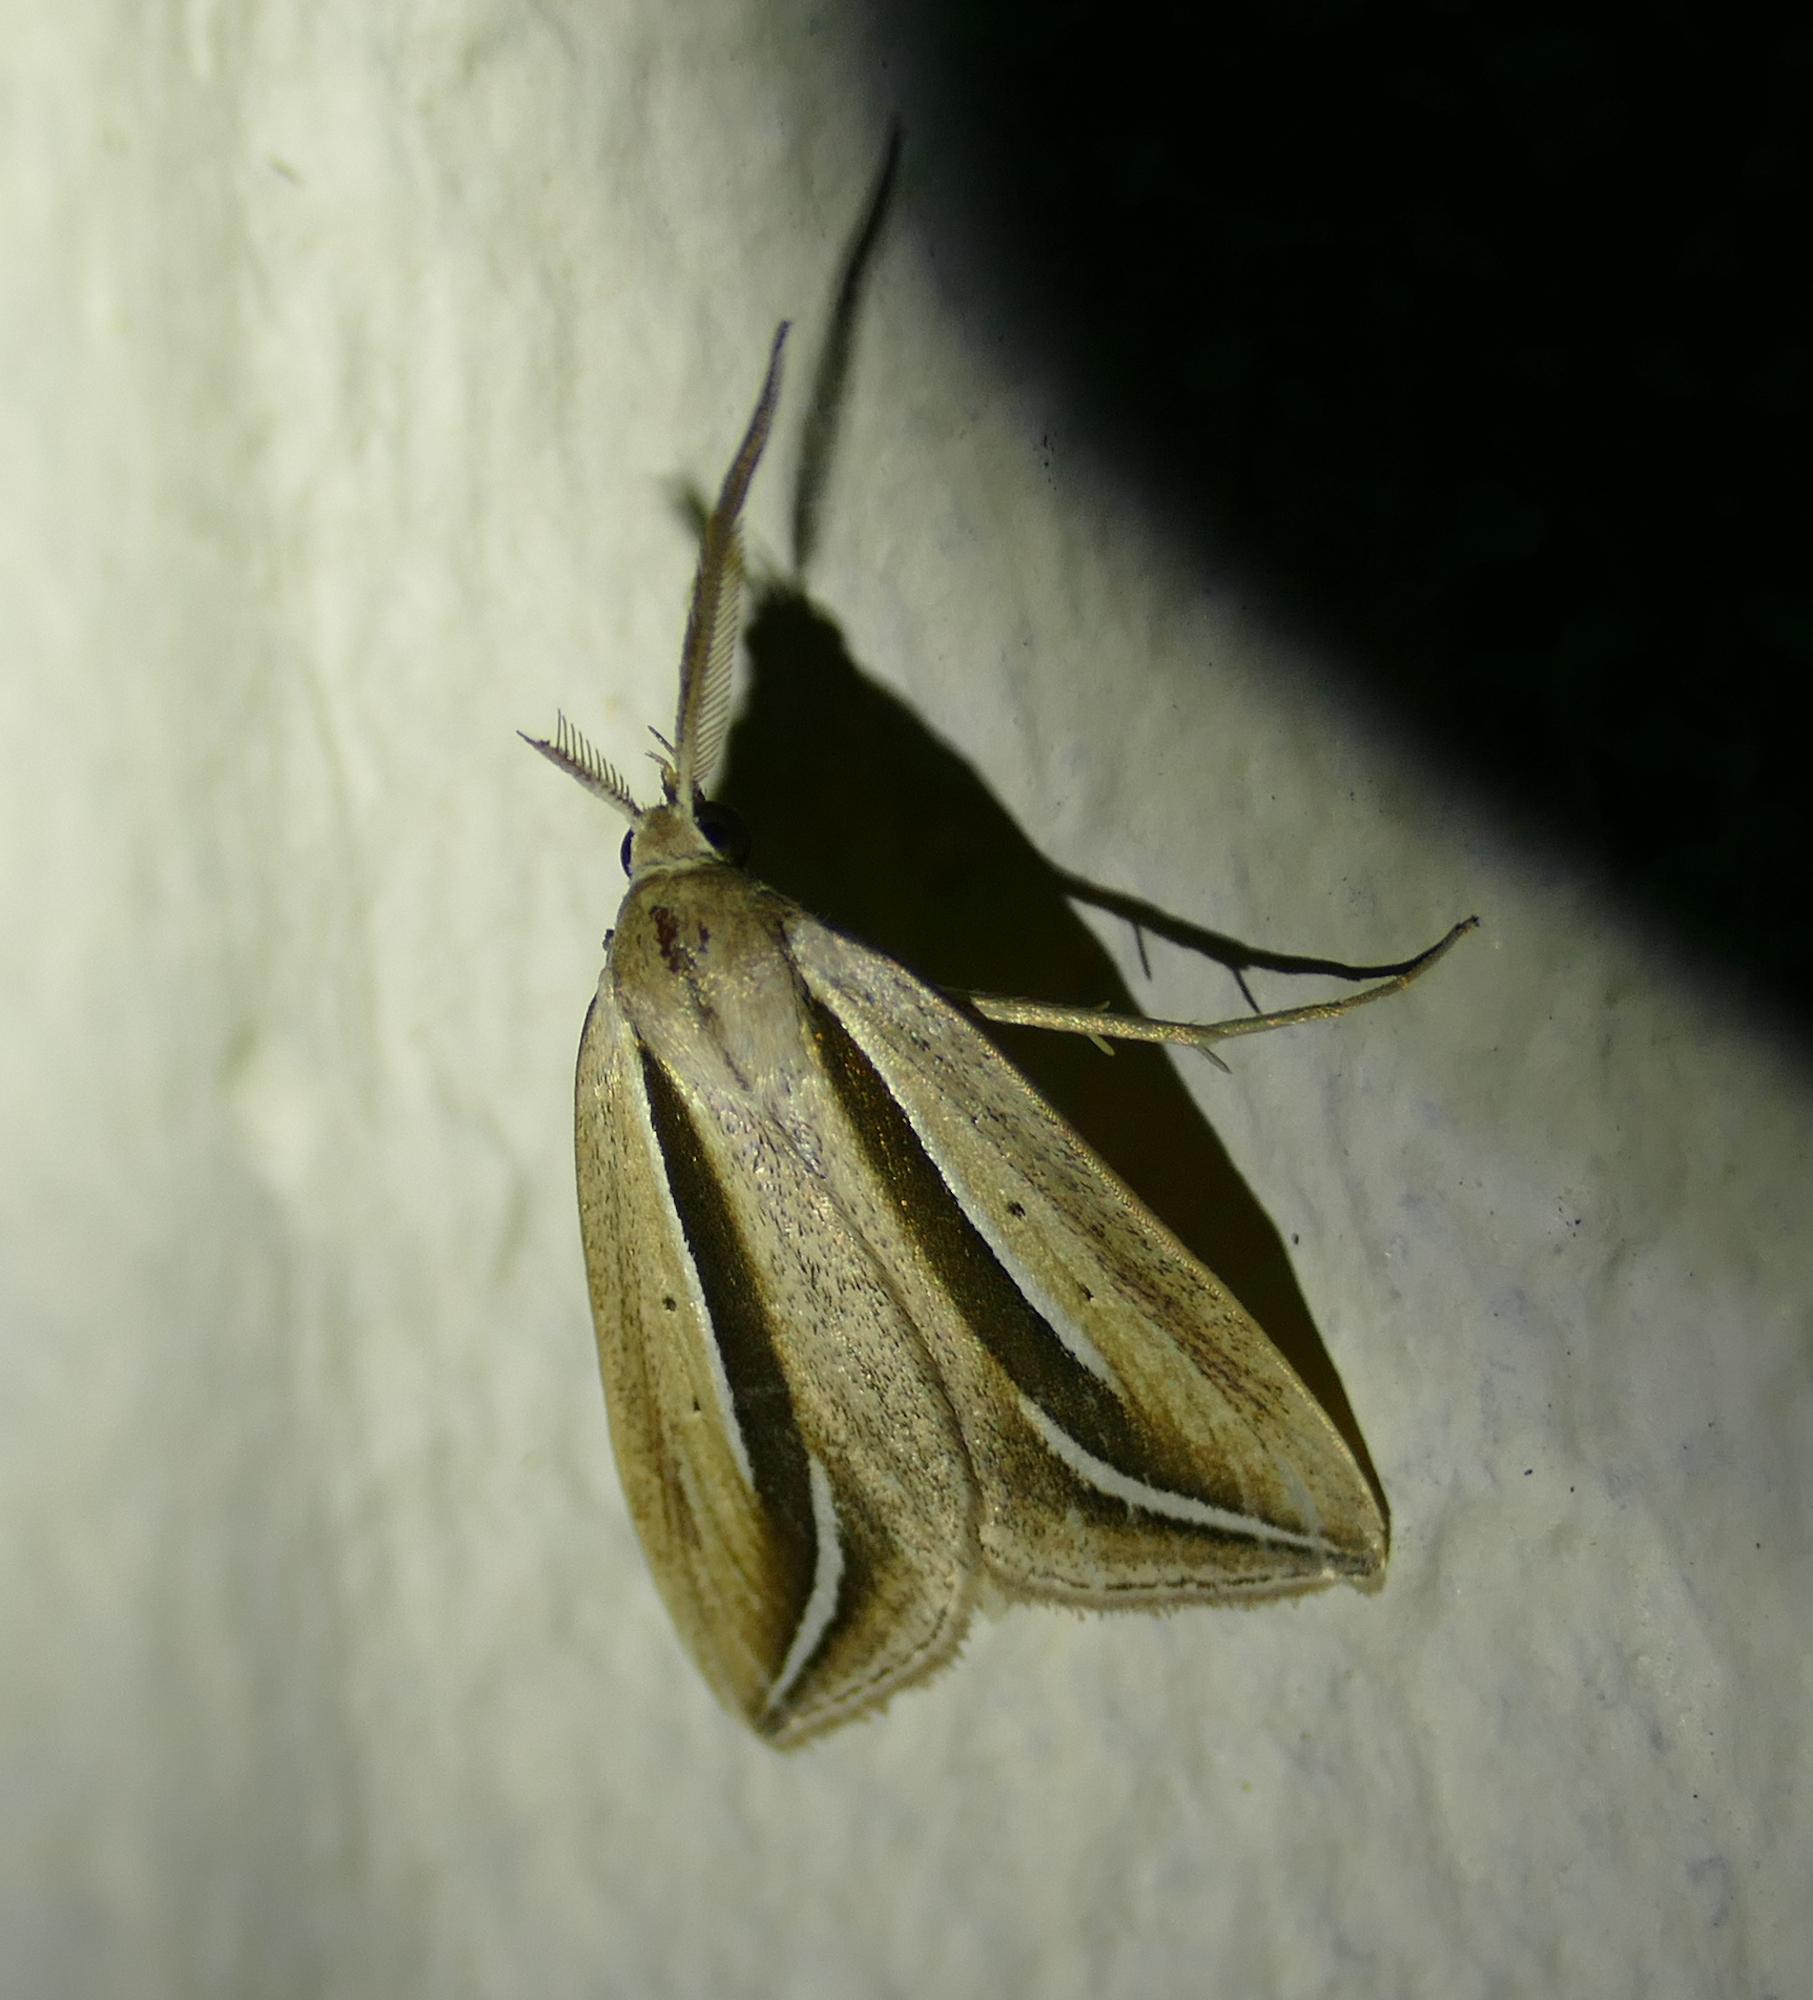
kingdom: Animalia
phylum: Arthropoda
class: Insecta
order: Lepidoptera
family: Erebidae
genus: Doryodes
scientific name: Doryodes latistriga
